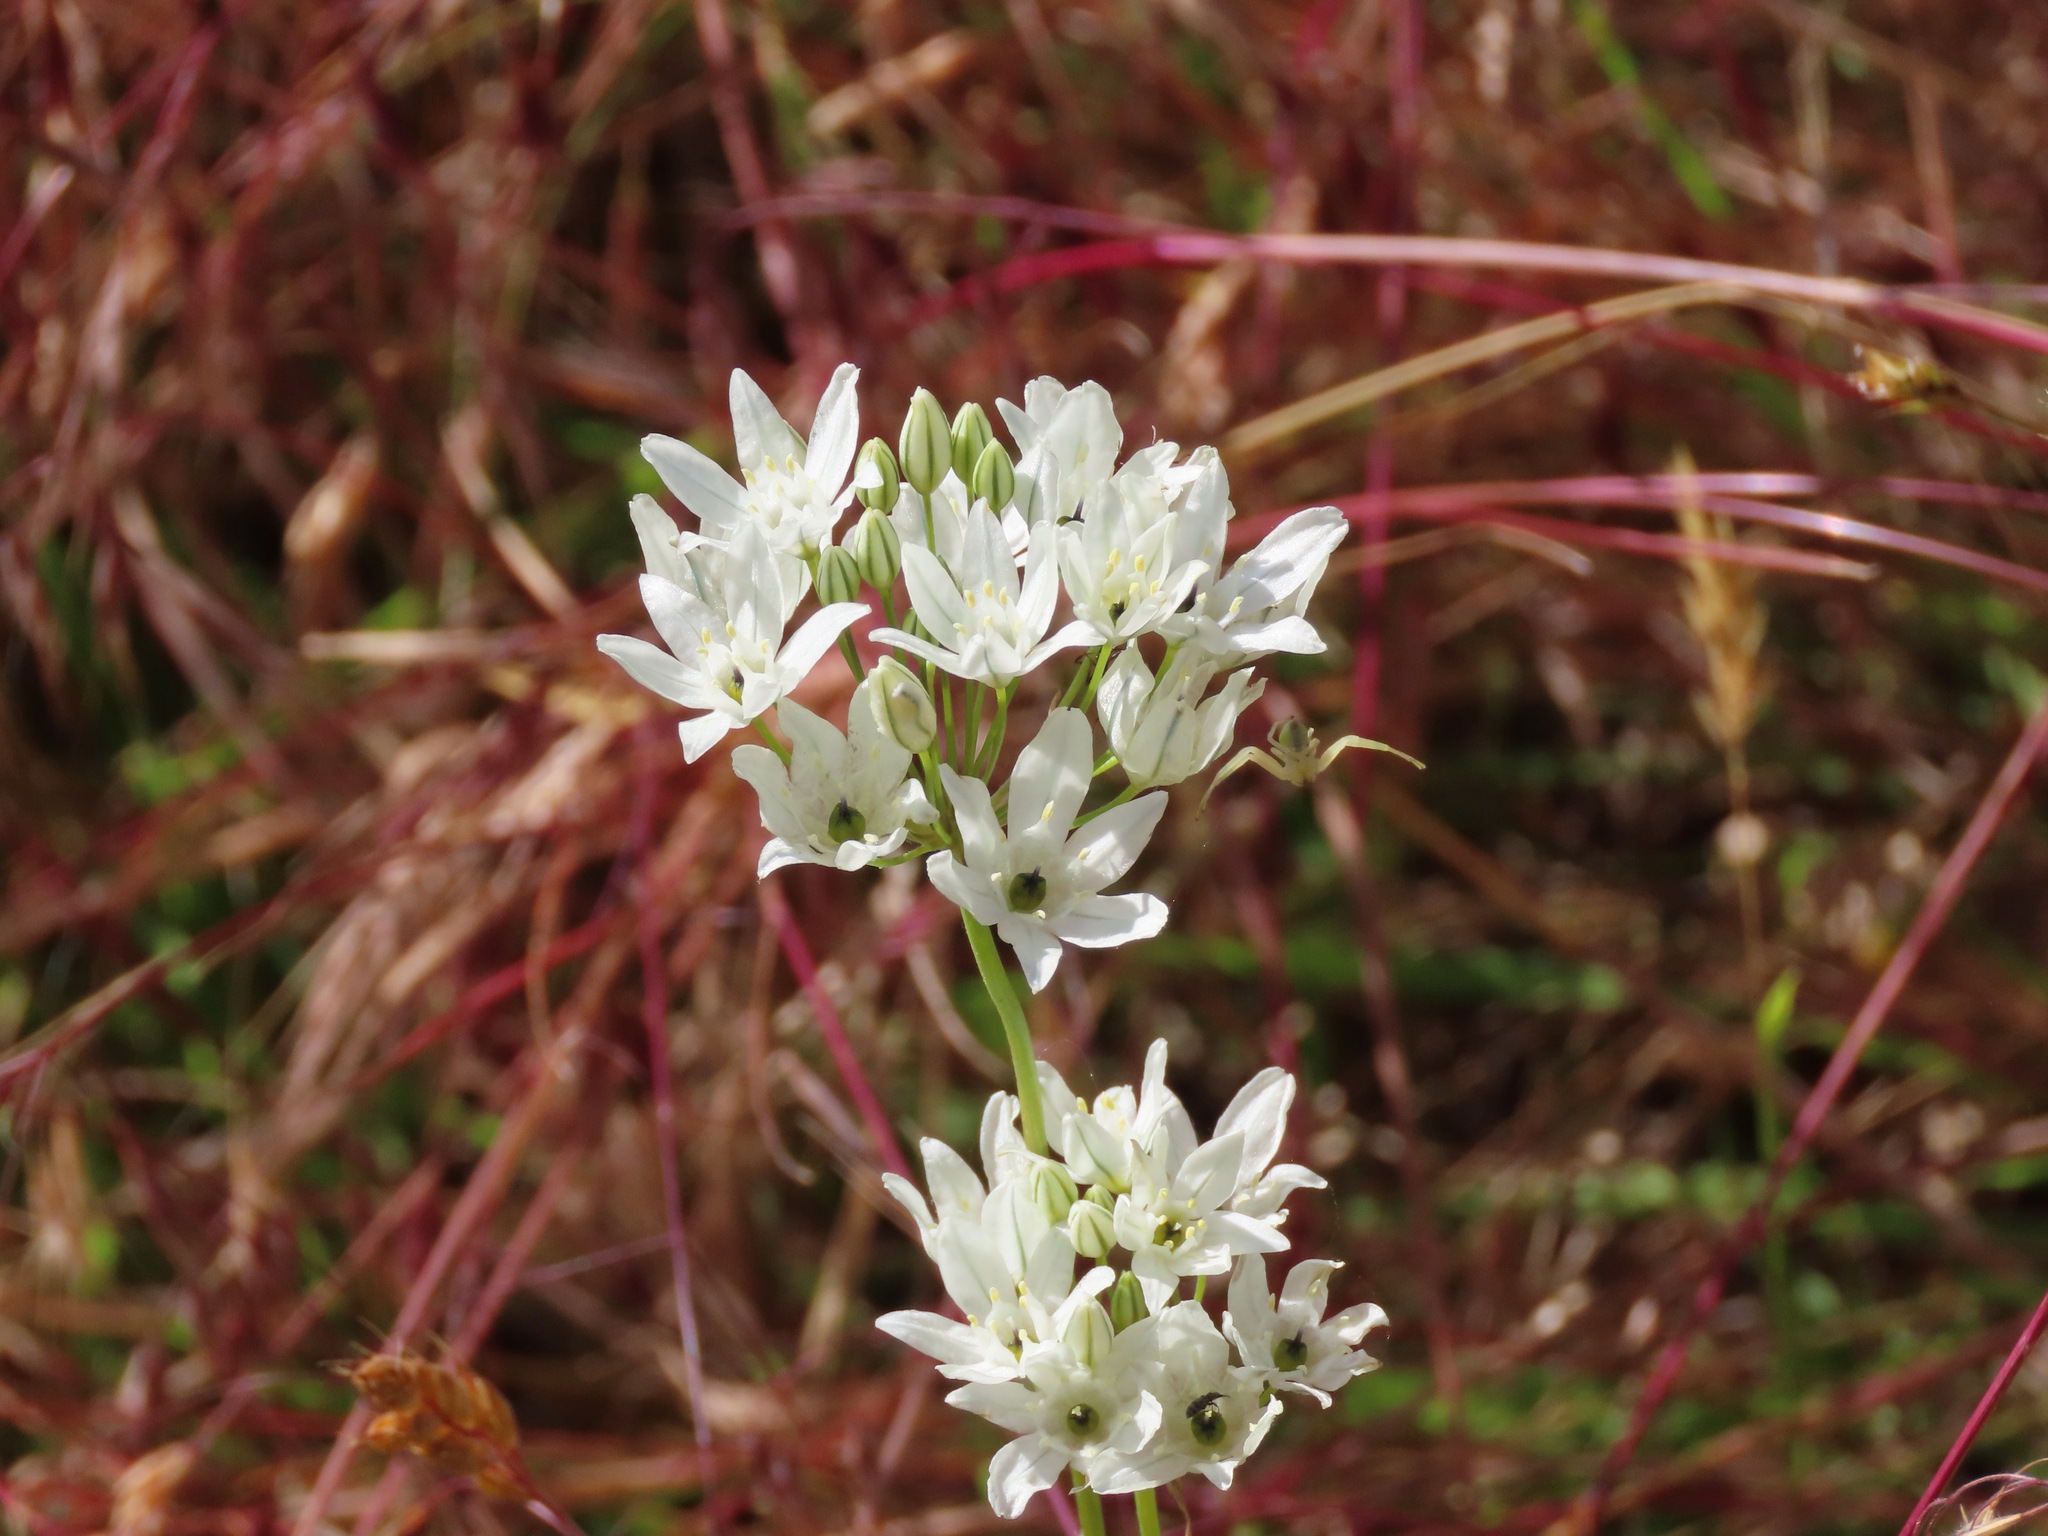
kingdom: Plantae
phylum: Tracheophyta
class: Liliopsida
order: Asparagales
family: Asparagaceae
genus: Triteleia
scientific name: Triteleia hyacinthina
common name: White brodiaea
